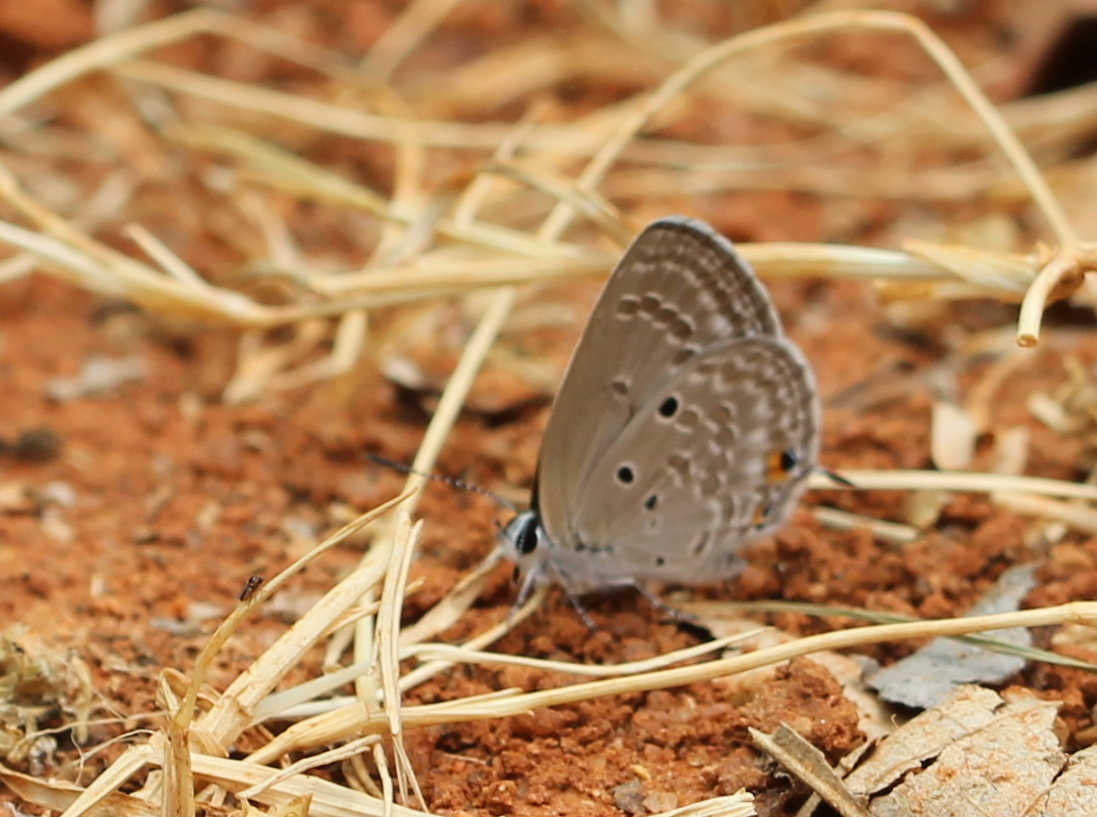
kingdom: Animalia
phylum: Arthropoda
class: Insecta
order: Lepidoptera
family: Lycaenidae
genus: Luthrodes
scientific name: Luthrodes pandava
